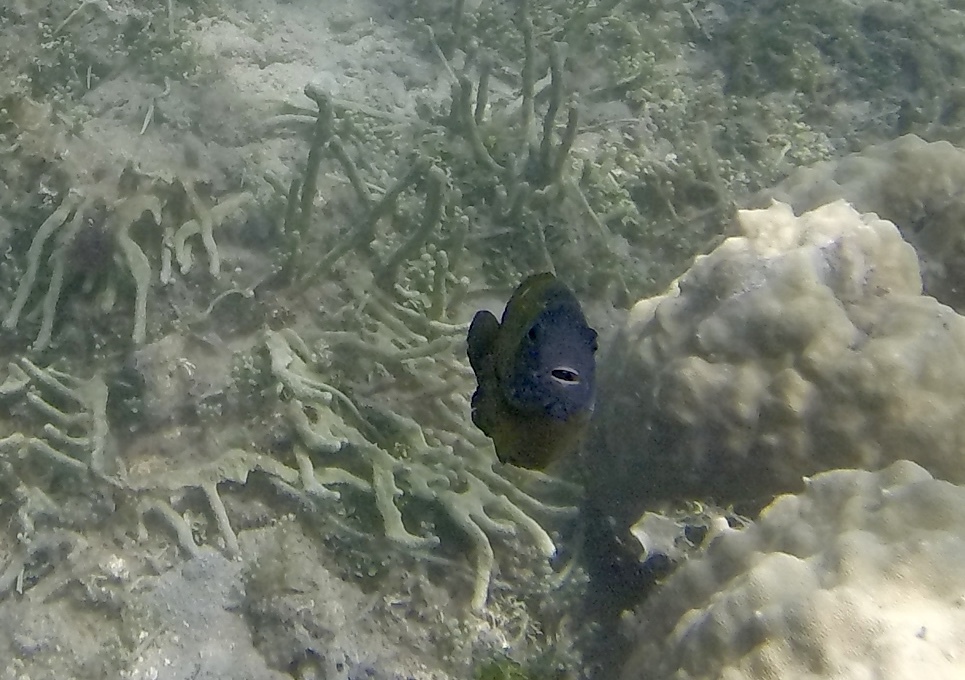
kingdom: Animalia
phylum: Chordata
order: Perciformes
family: Pomacentridae
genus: Dischistodus
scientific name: Dischistodus chrysopoecilus
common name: White-spot damsel
